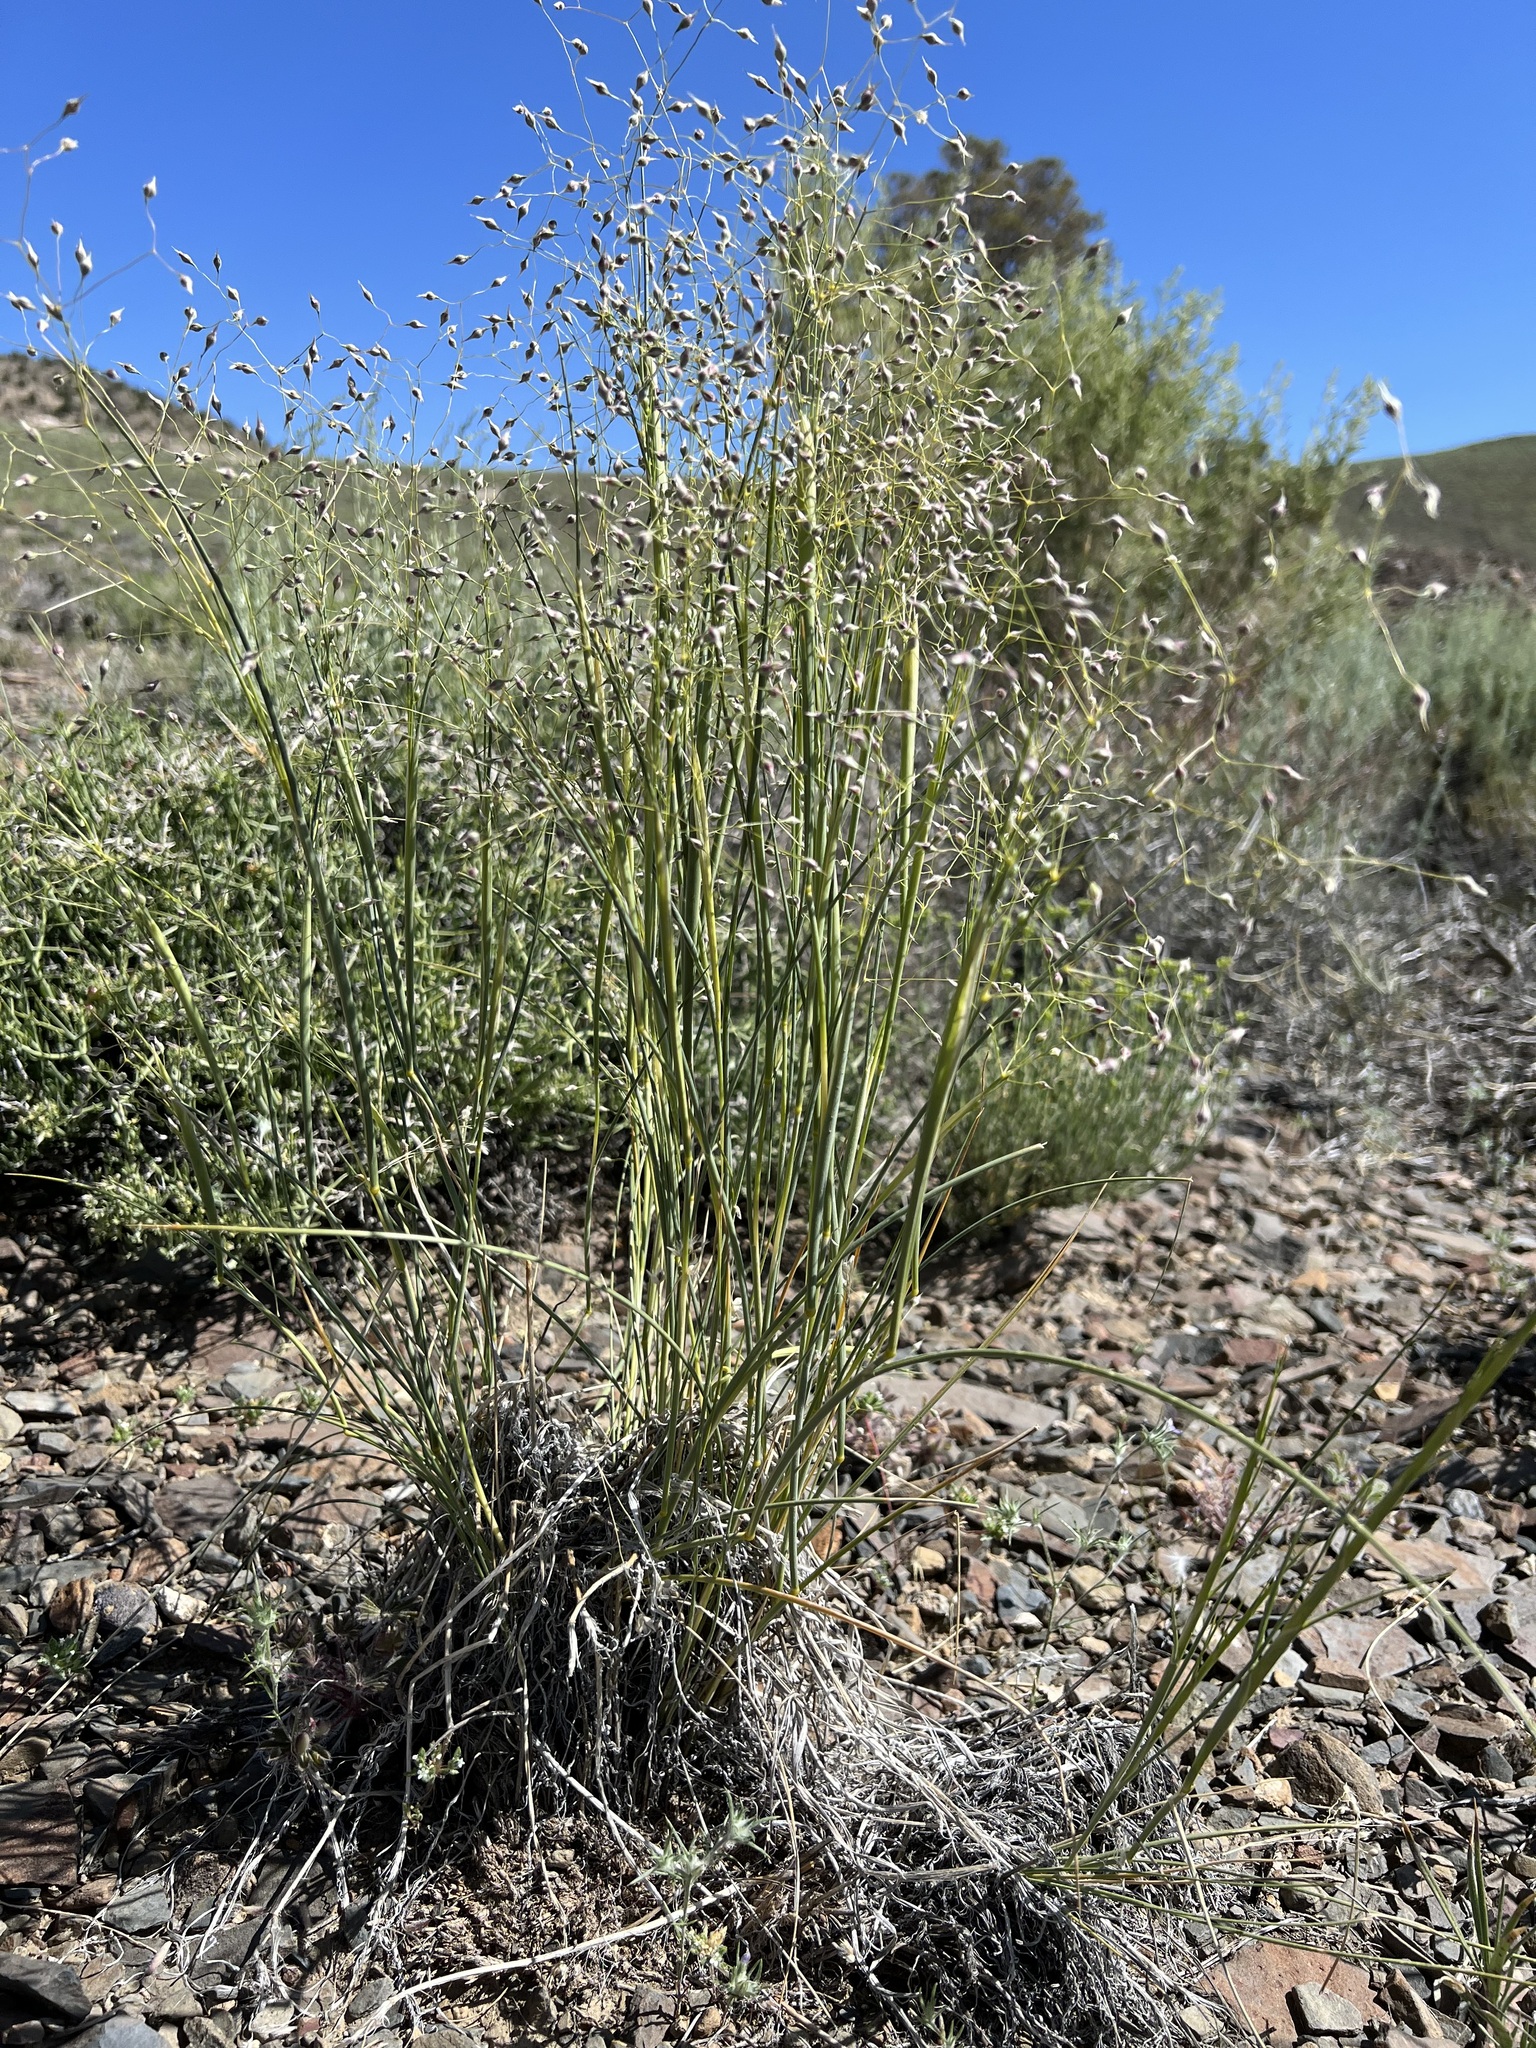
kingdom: Plantae
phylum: Tracheophyta
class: Liliopsida
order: Poales
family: Poaceae
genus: Eriocoma
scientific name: Eriocoma hymenoides
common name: Indian mountain ricegrass
